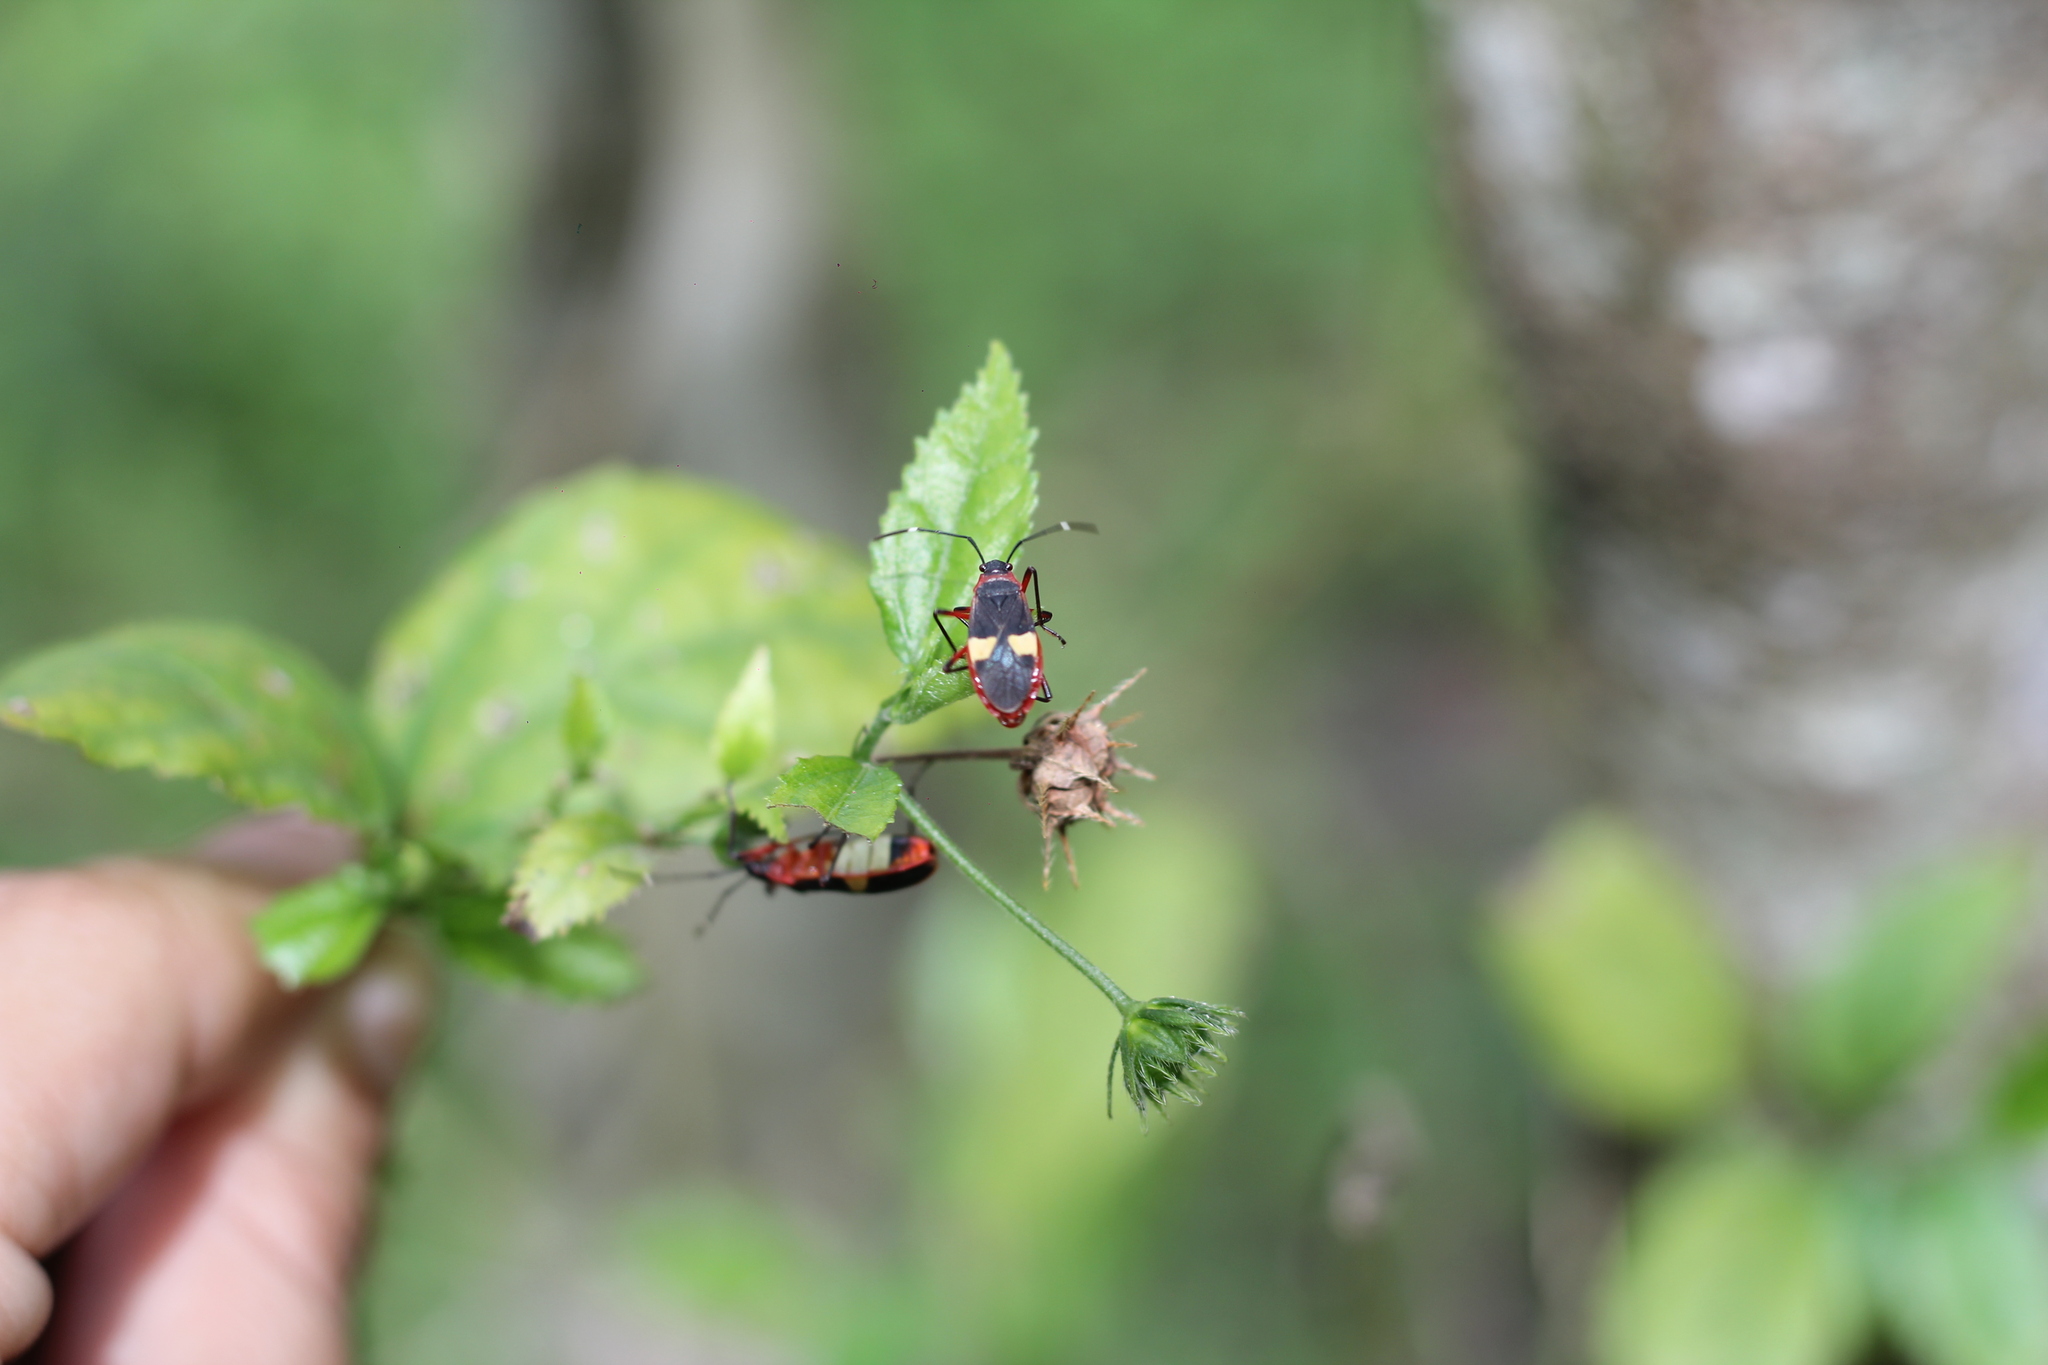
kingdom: Animalia
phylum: Arthropoda
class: Insecta
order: Hemiptera
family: Pyrrhocoridae
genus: Dysdercus
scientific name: Dysdercus albofasciatus
